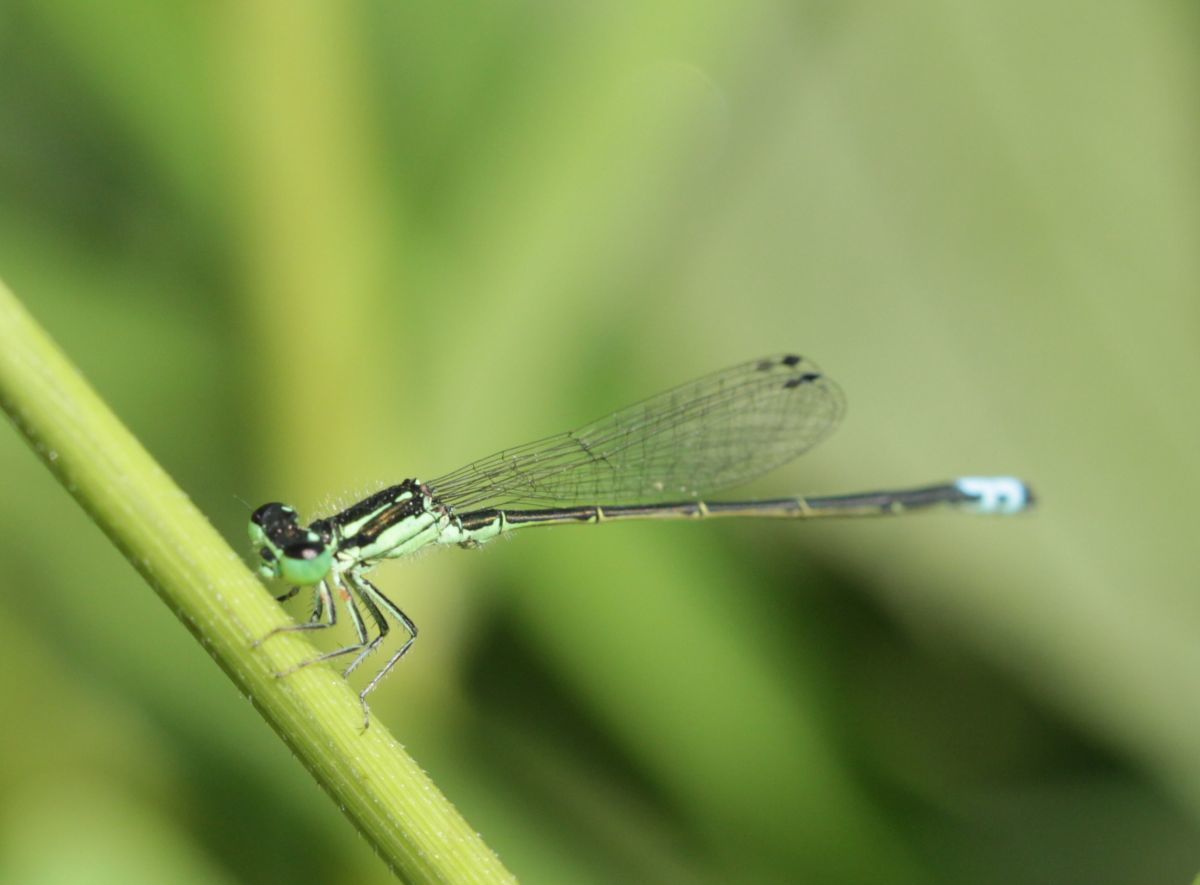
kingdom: Animalia
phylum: Arthropoda
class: Insecta
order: Odonata
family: Coenagrionidae
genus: Ischnura
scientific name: Ischnura verticalis
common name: Eastern forktail
